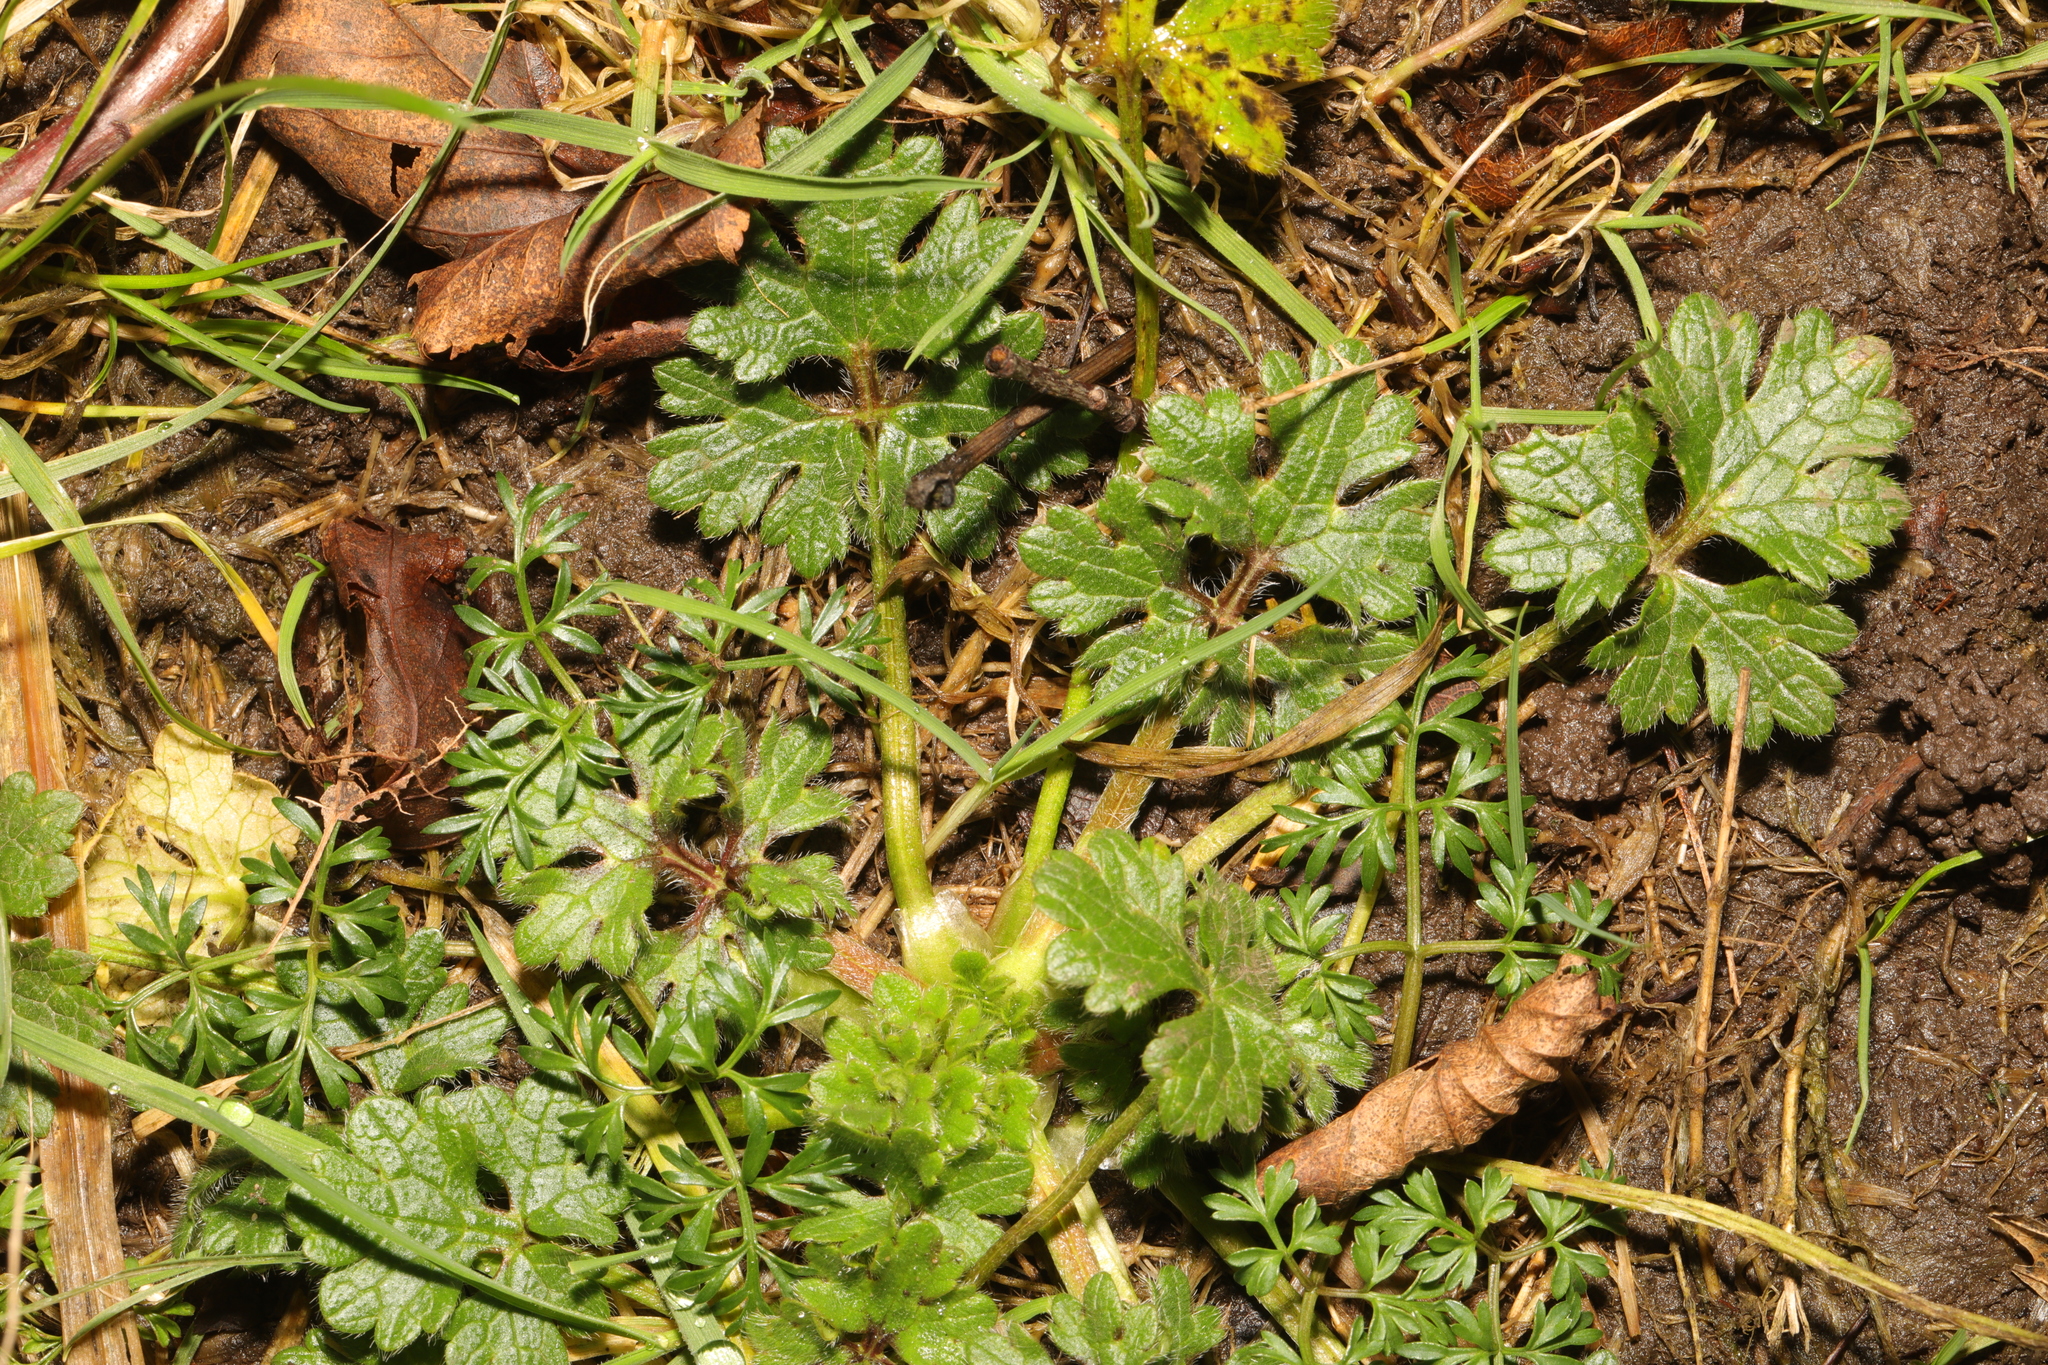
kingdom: Plantae
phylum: Tracheophyta
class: Magnoliopsida
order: Apiales
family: Apiaceae
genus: Conopodium
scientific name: Conopodium majus
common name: Pignut
